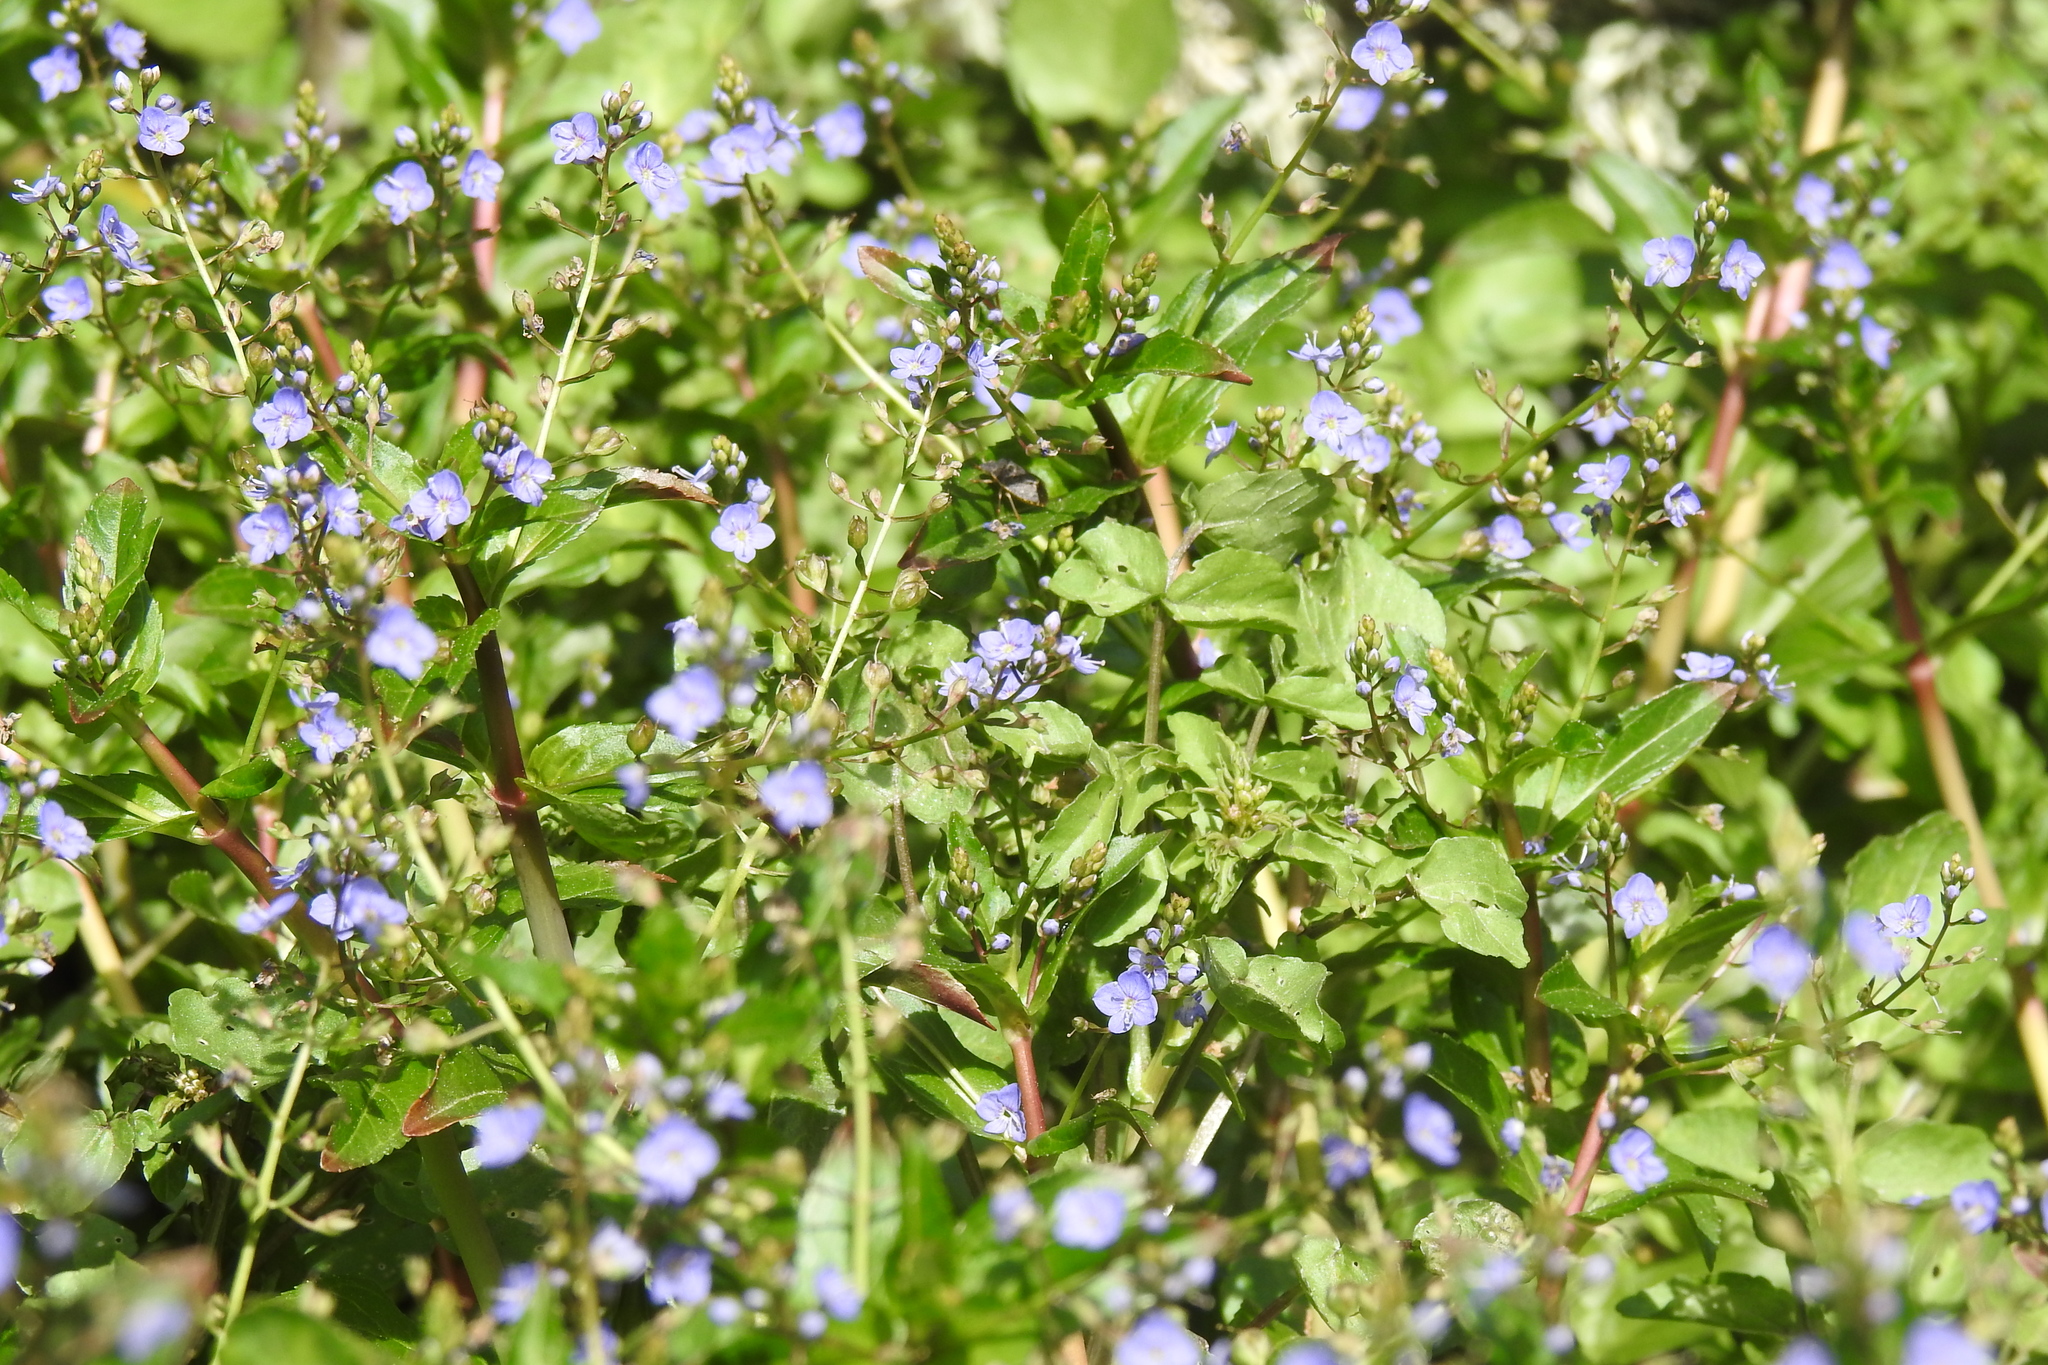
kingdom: Plantae
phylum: Tracheophyta
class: Magnoliopsida
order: Lamiales
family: Plantaginaceae
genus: Veronica
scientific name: Veronica americana
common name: American brooklime
